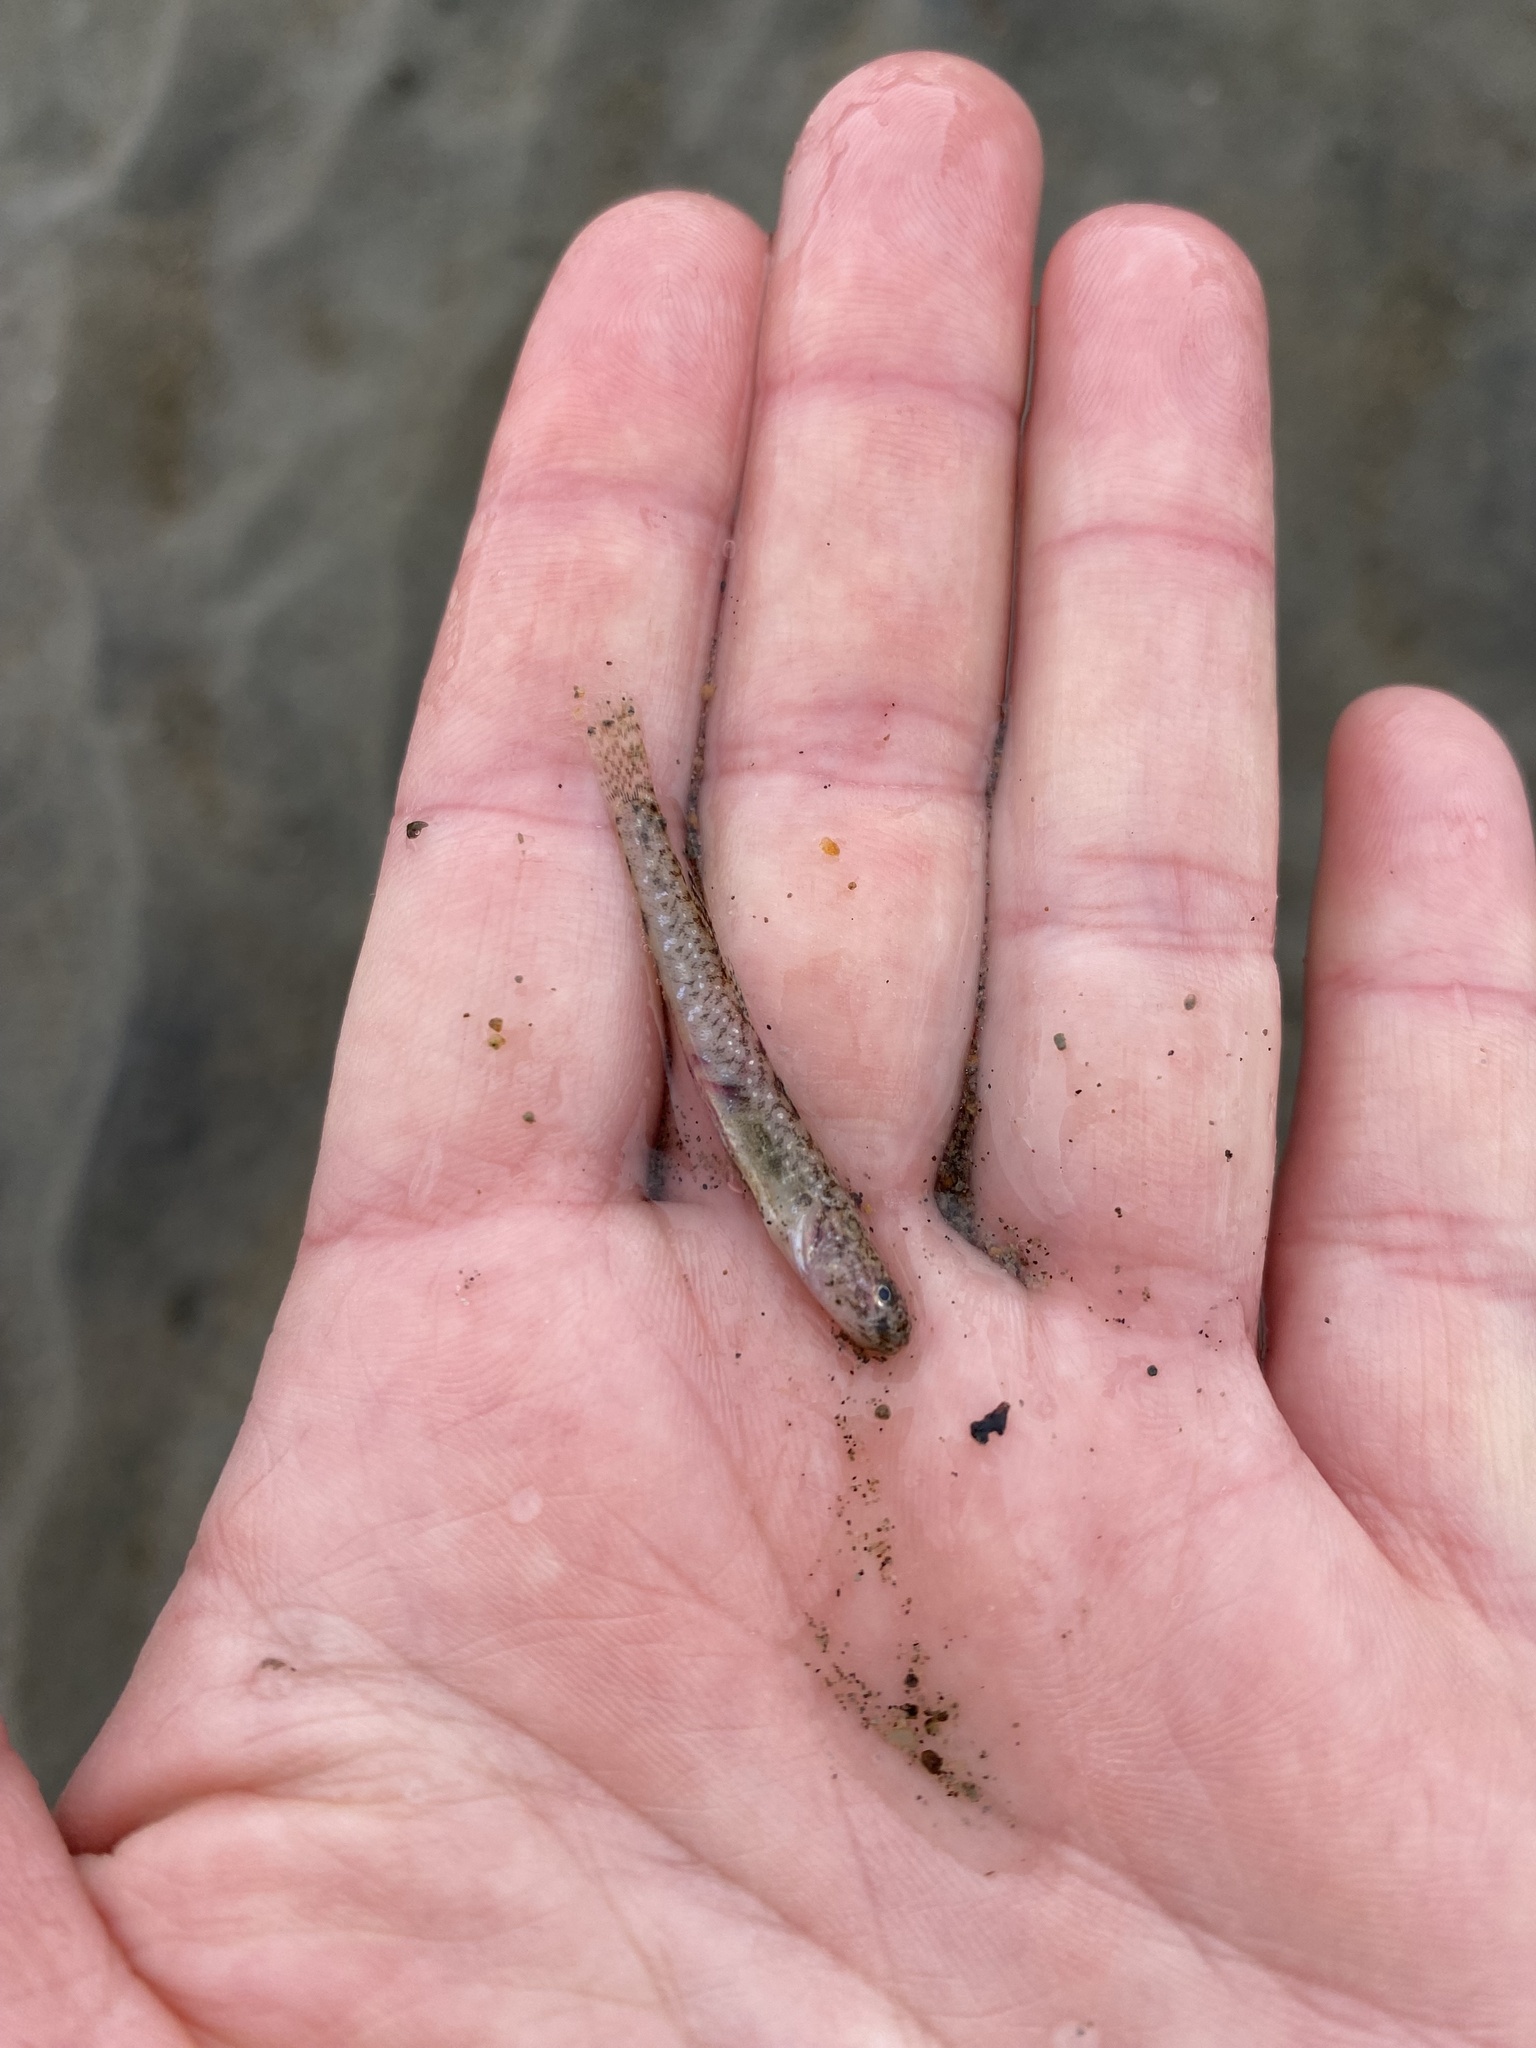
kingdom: Animalia
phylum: Chordata
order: Perciformes
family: Gobiidae
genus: Clevelandia
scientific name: Clevelandia ios
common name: Arrow goby
